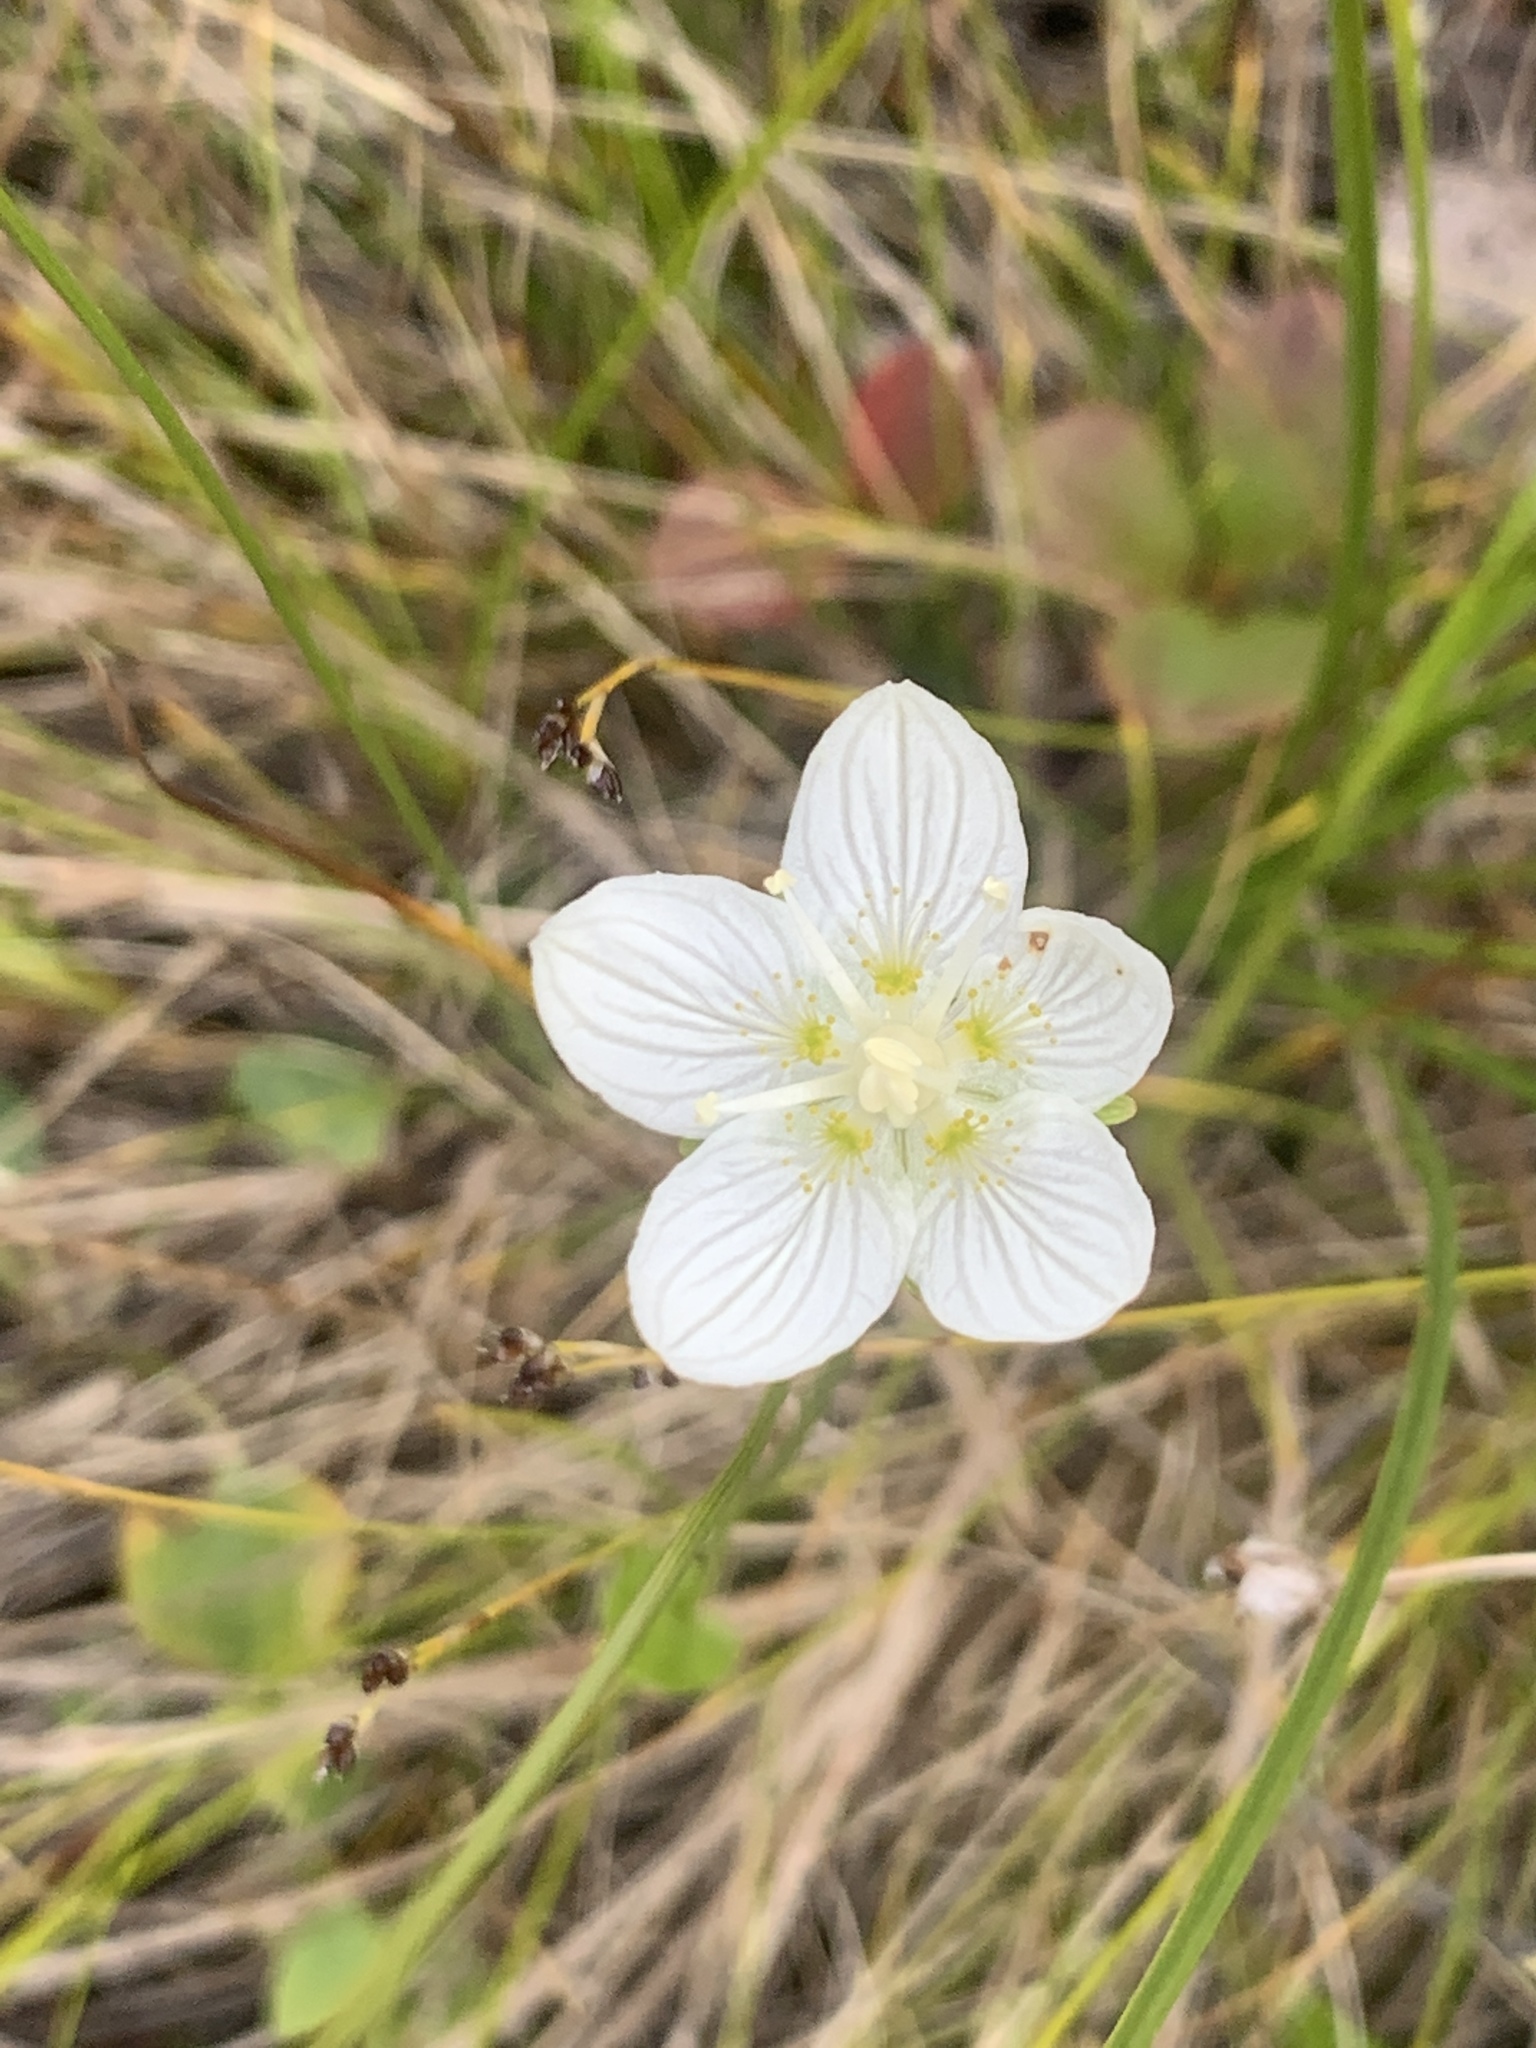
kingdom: Plantae
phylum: Tracheophyta
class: Magnoliopsida
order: Celastrales
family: Parnassiaceae
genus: Parnassia
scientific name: Parnassia palustris
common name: Grass-of-parnassus
